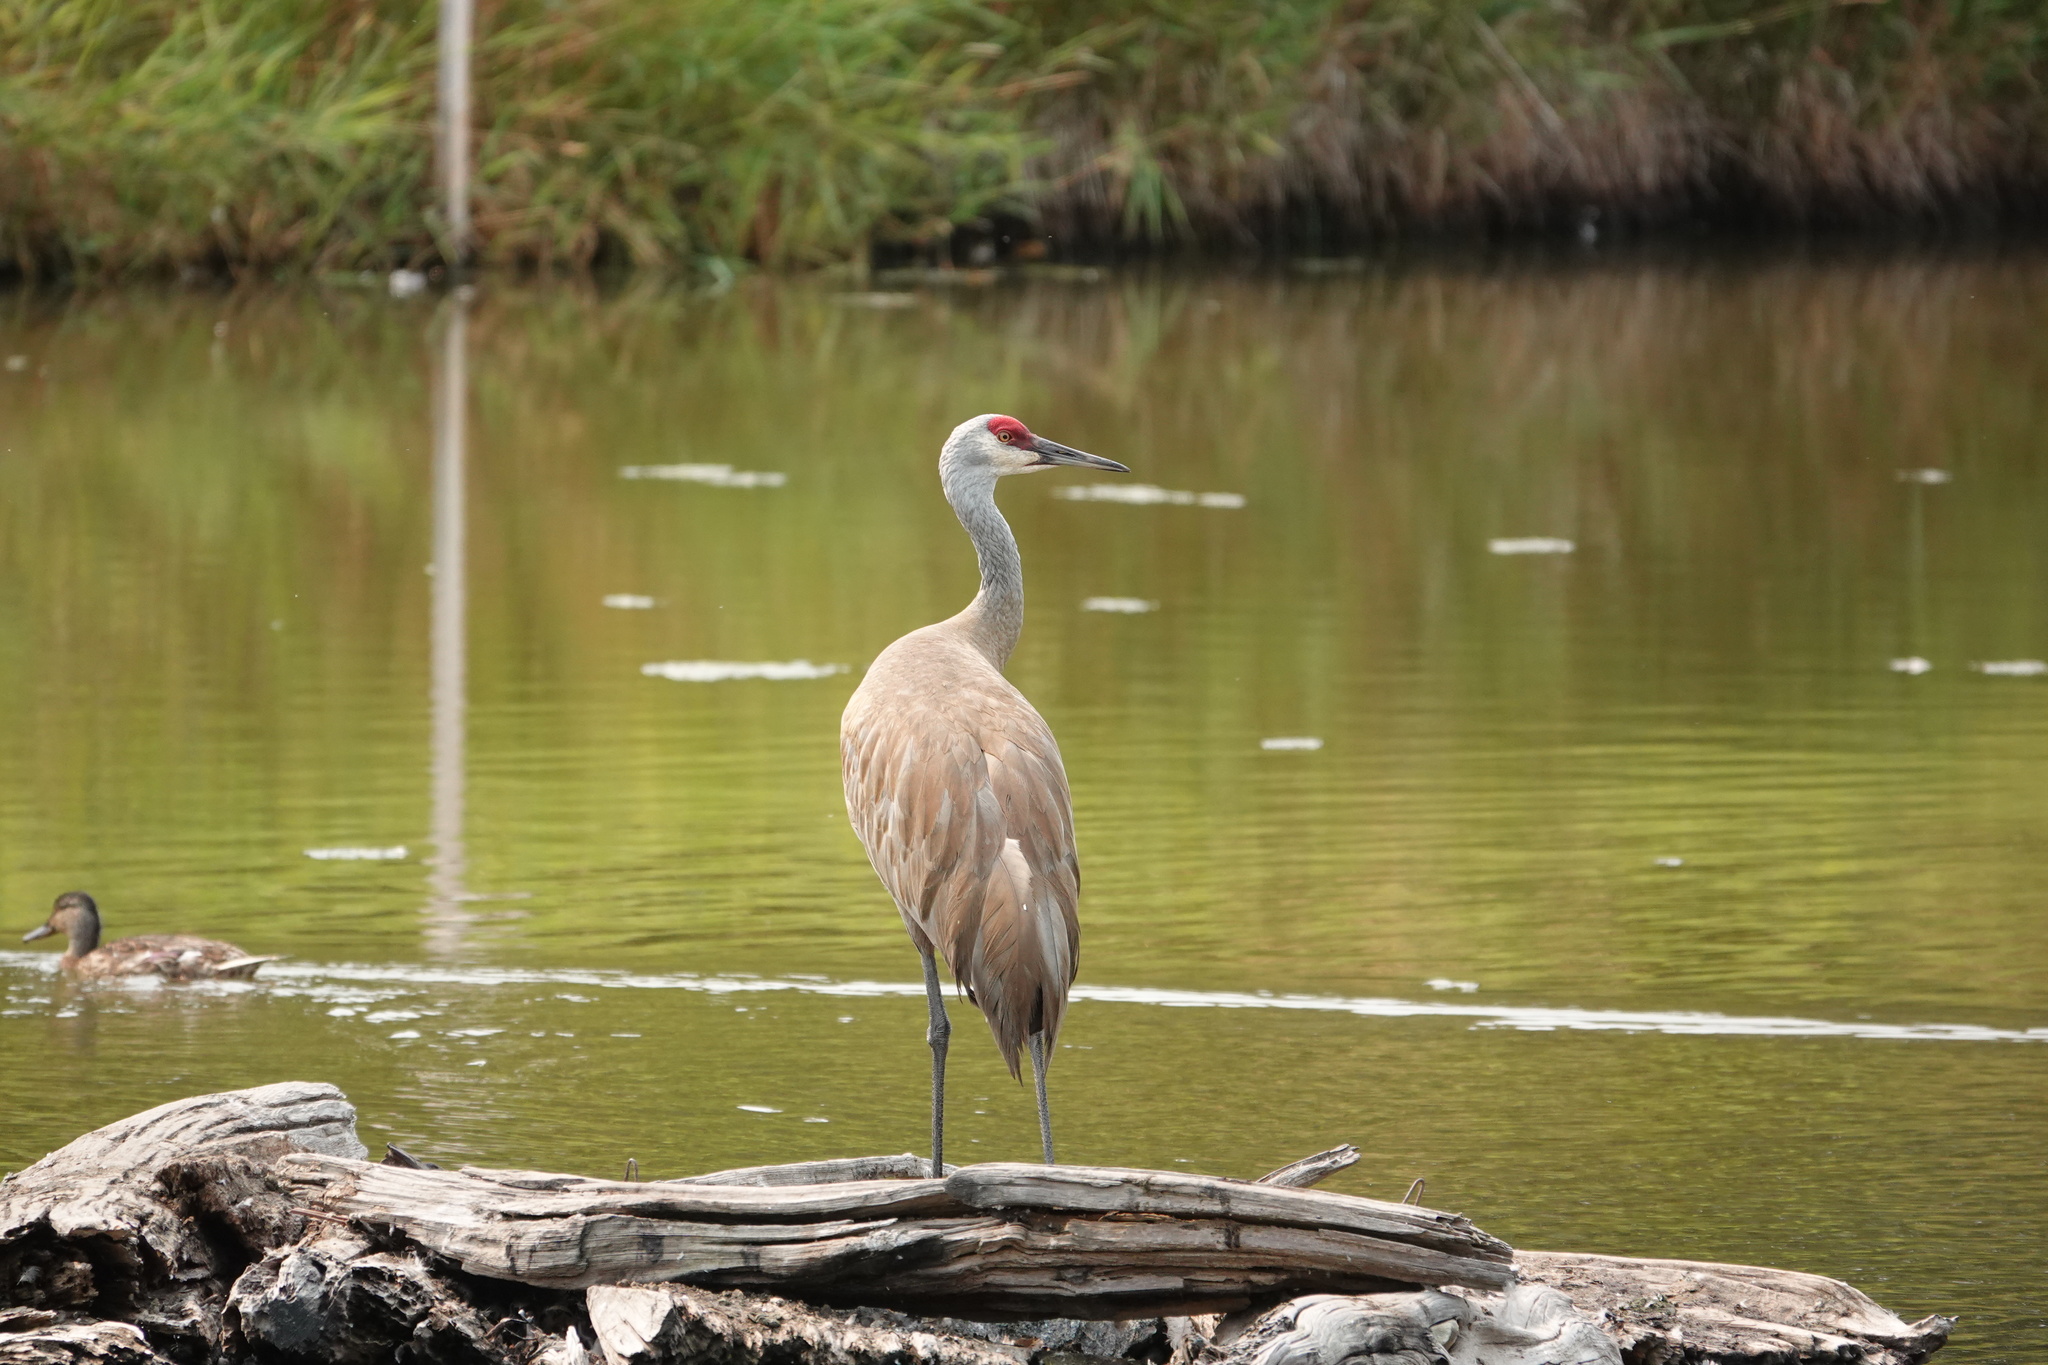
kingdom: Animalia
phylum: Chordata
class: Aves
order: Gruiformes
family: Gruidae
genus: Grus
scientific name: Grus canadensis
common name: Sandhill crane
